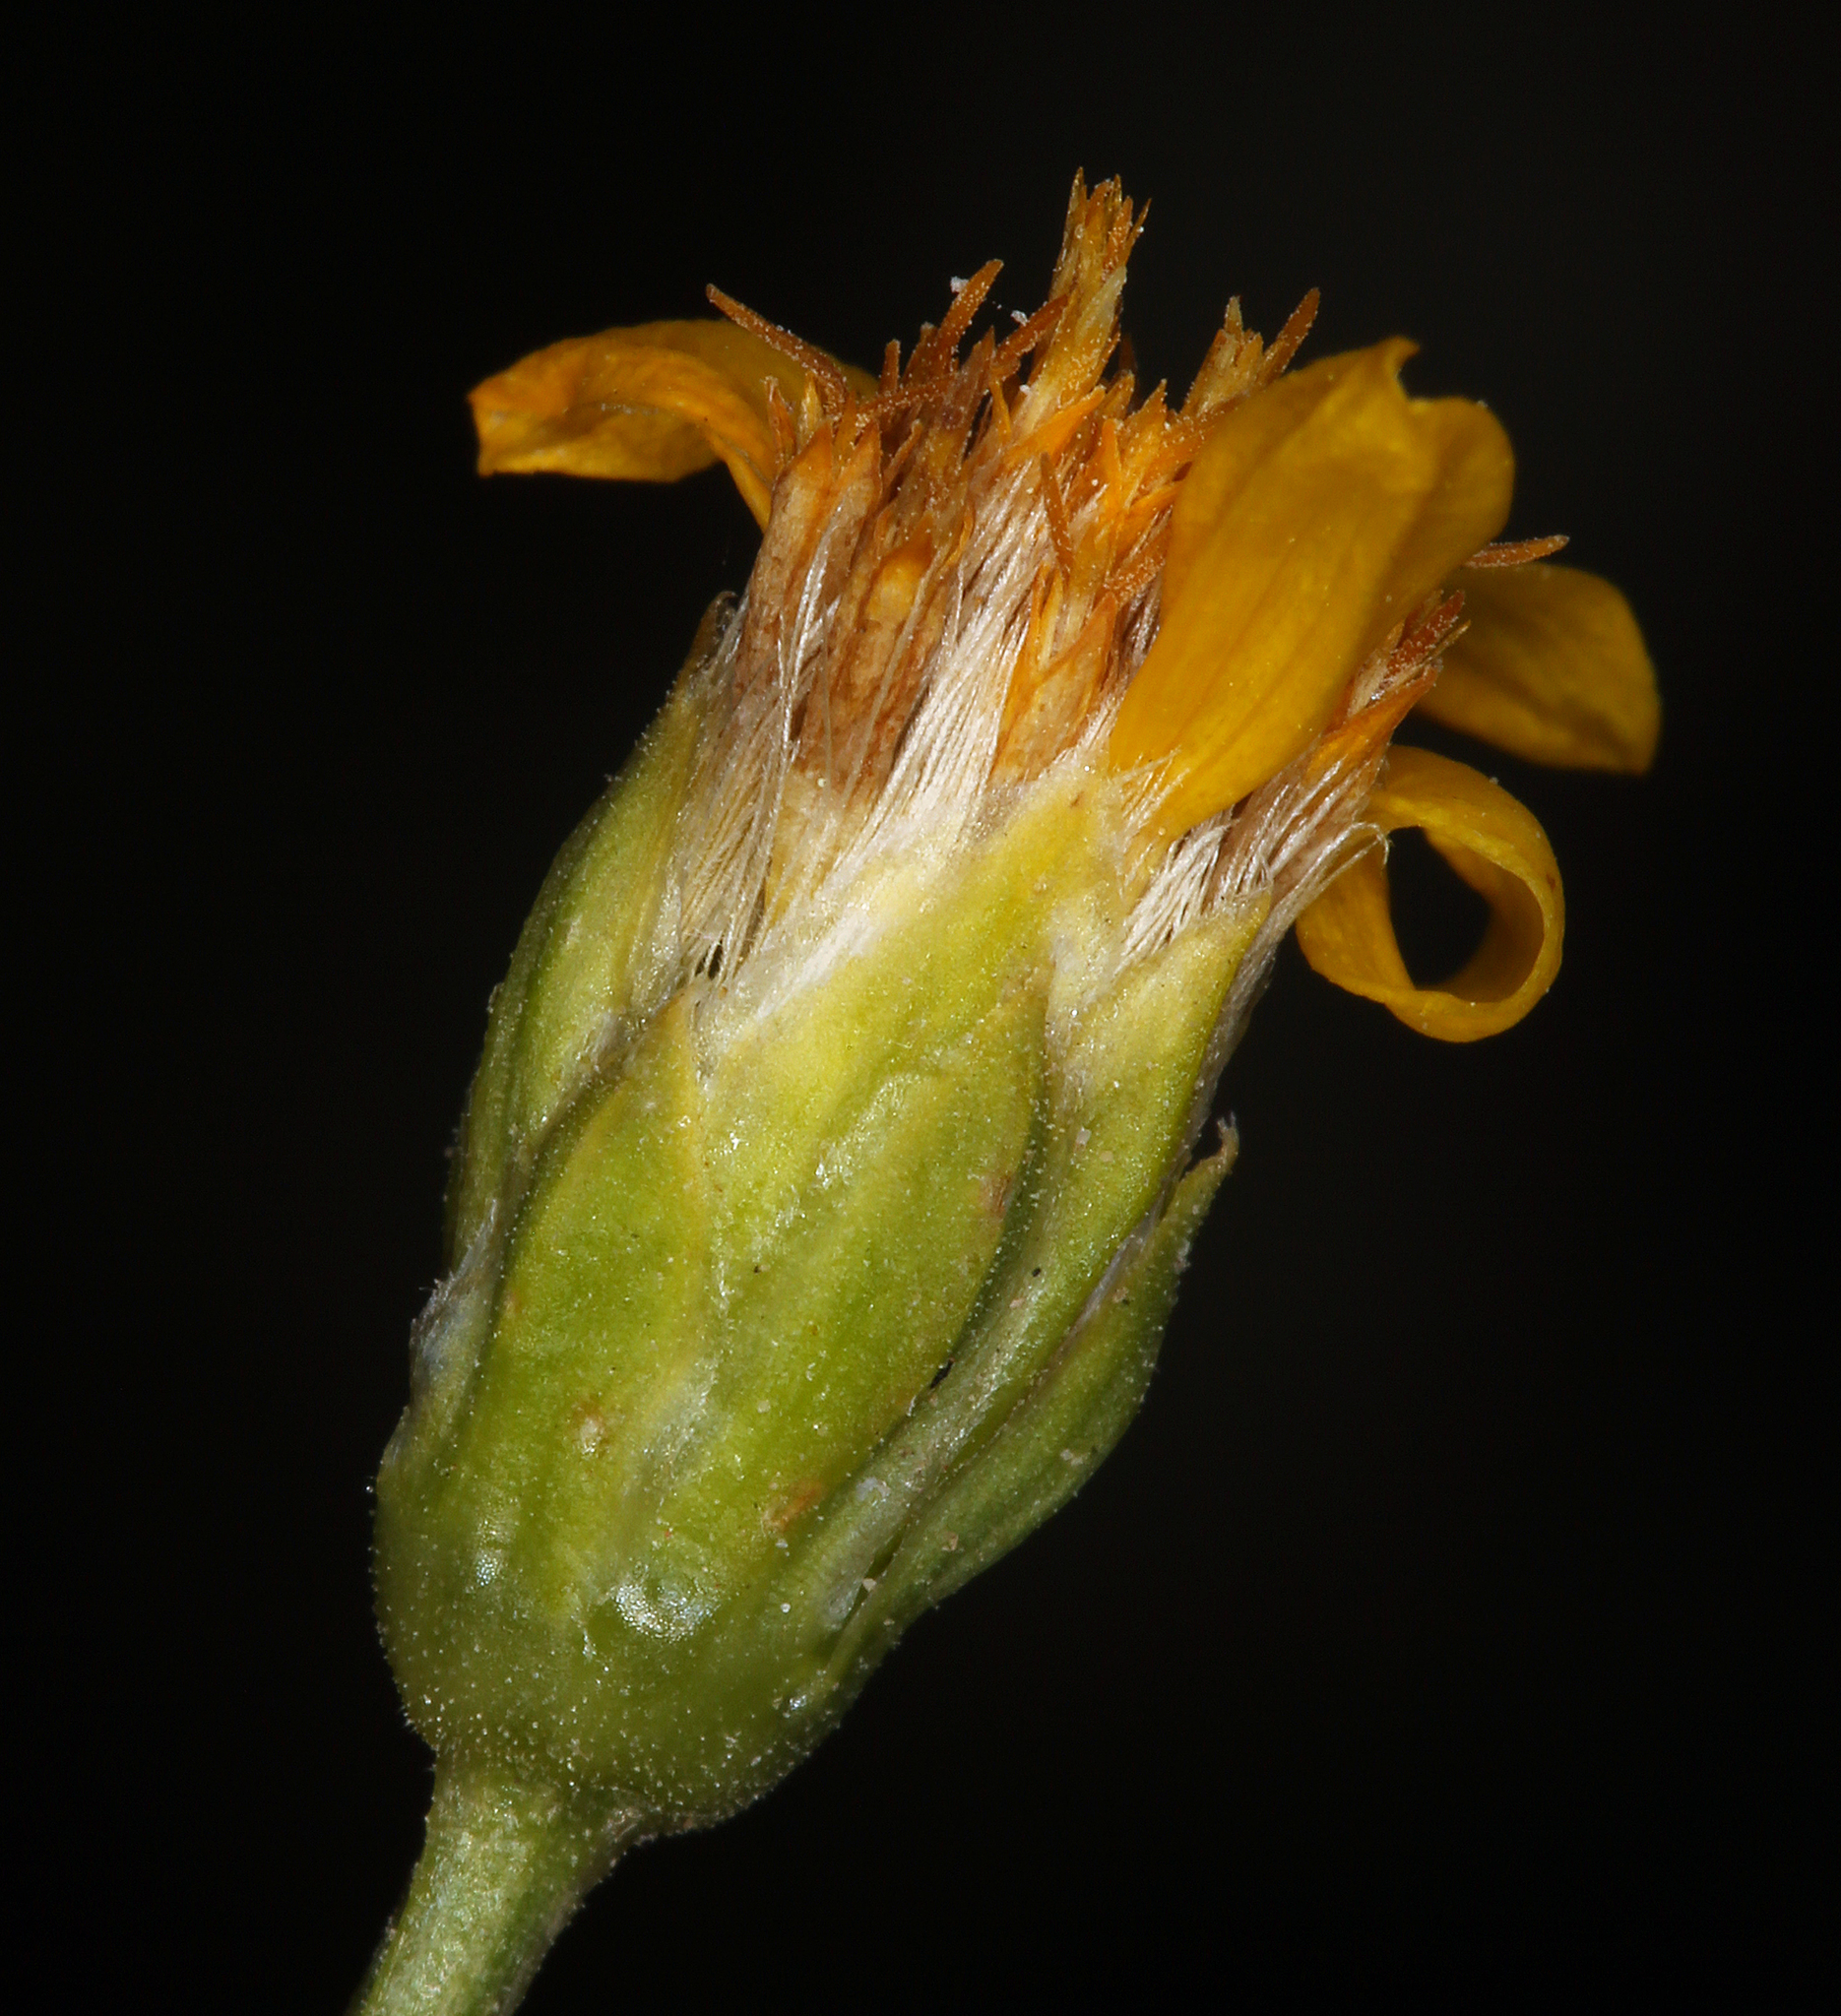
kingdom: Plantae
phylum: Tracheophyta
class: Magnoliopsida
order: Asterales
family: Asteraceae
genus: Stenotus
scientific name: Stenotus acaulis
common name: Stemless goldenweed
